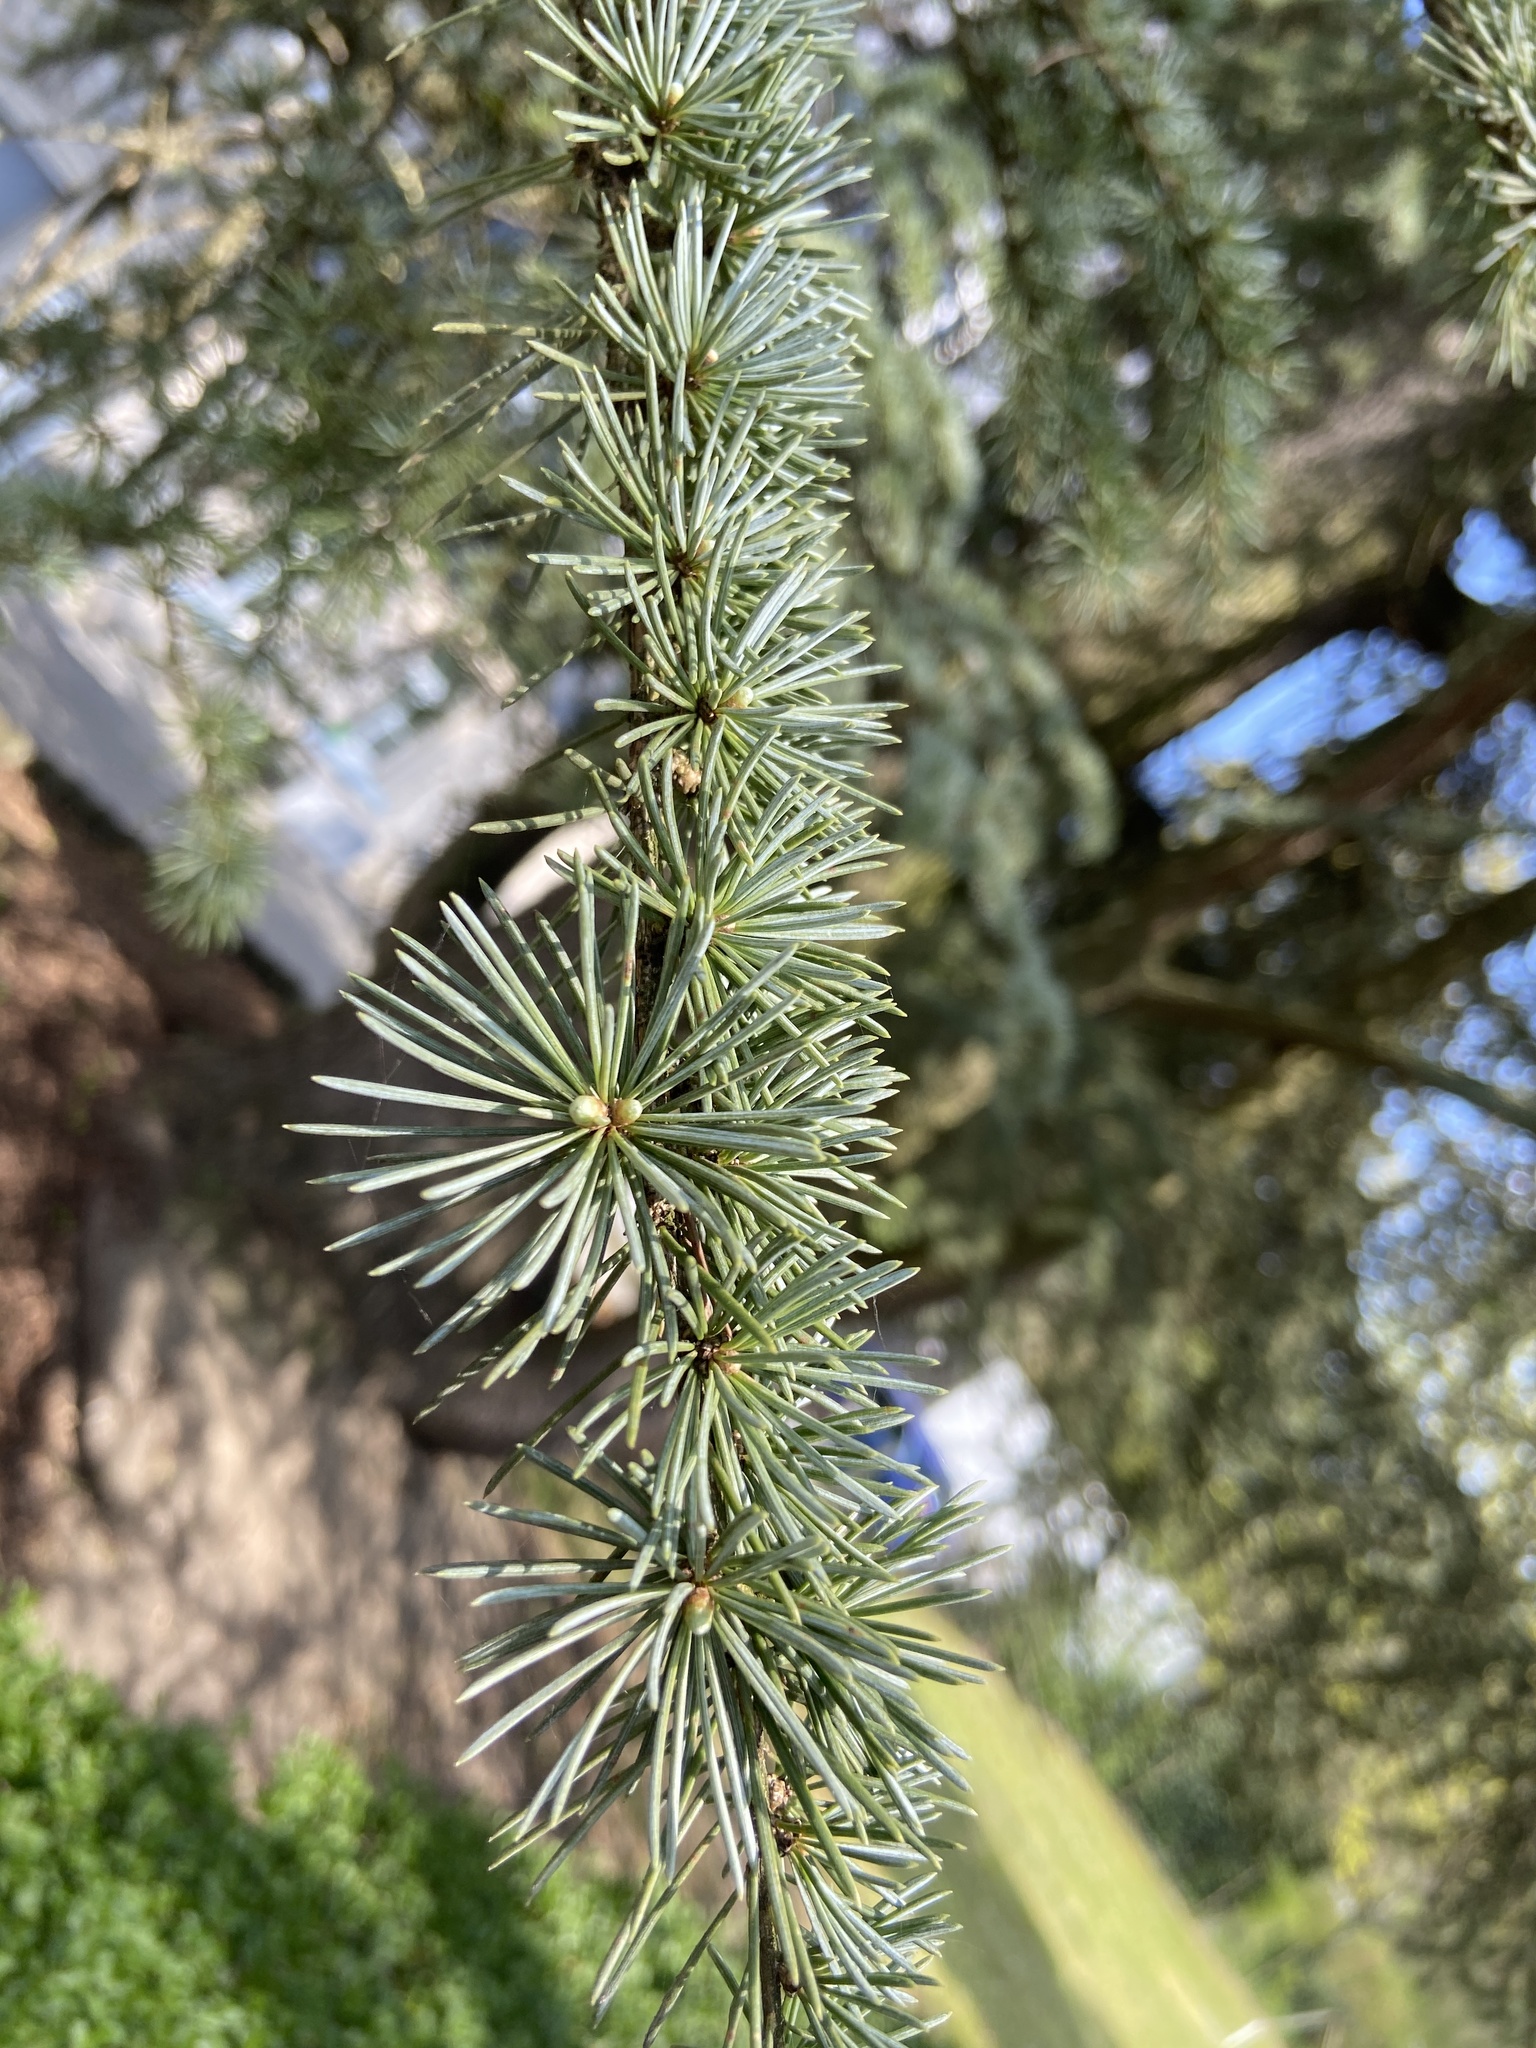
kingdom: Plantae
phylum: Tracheophyta
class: Pinopsida
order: Pinales
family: Pinaceae
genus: Cedrus
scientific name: Cedrus atlantica
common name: Atlas cedar
